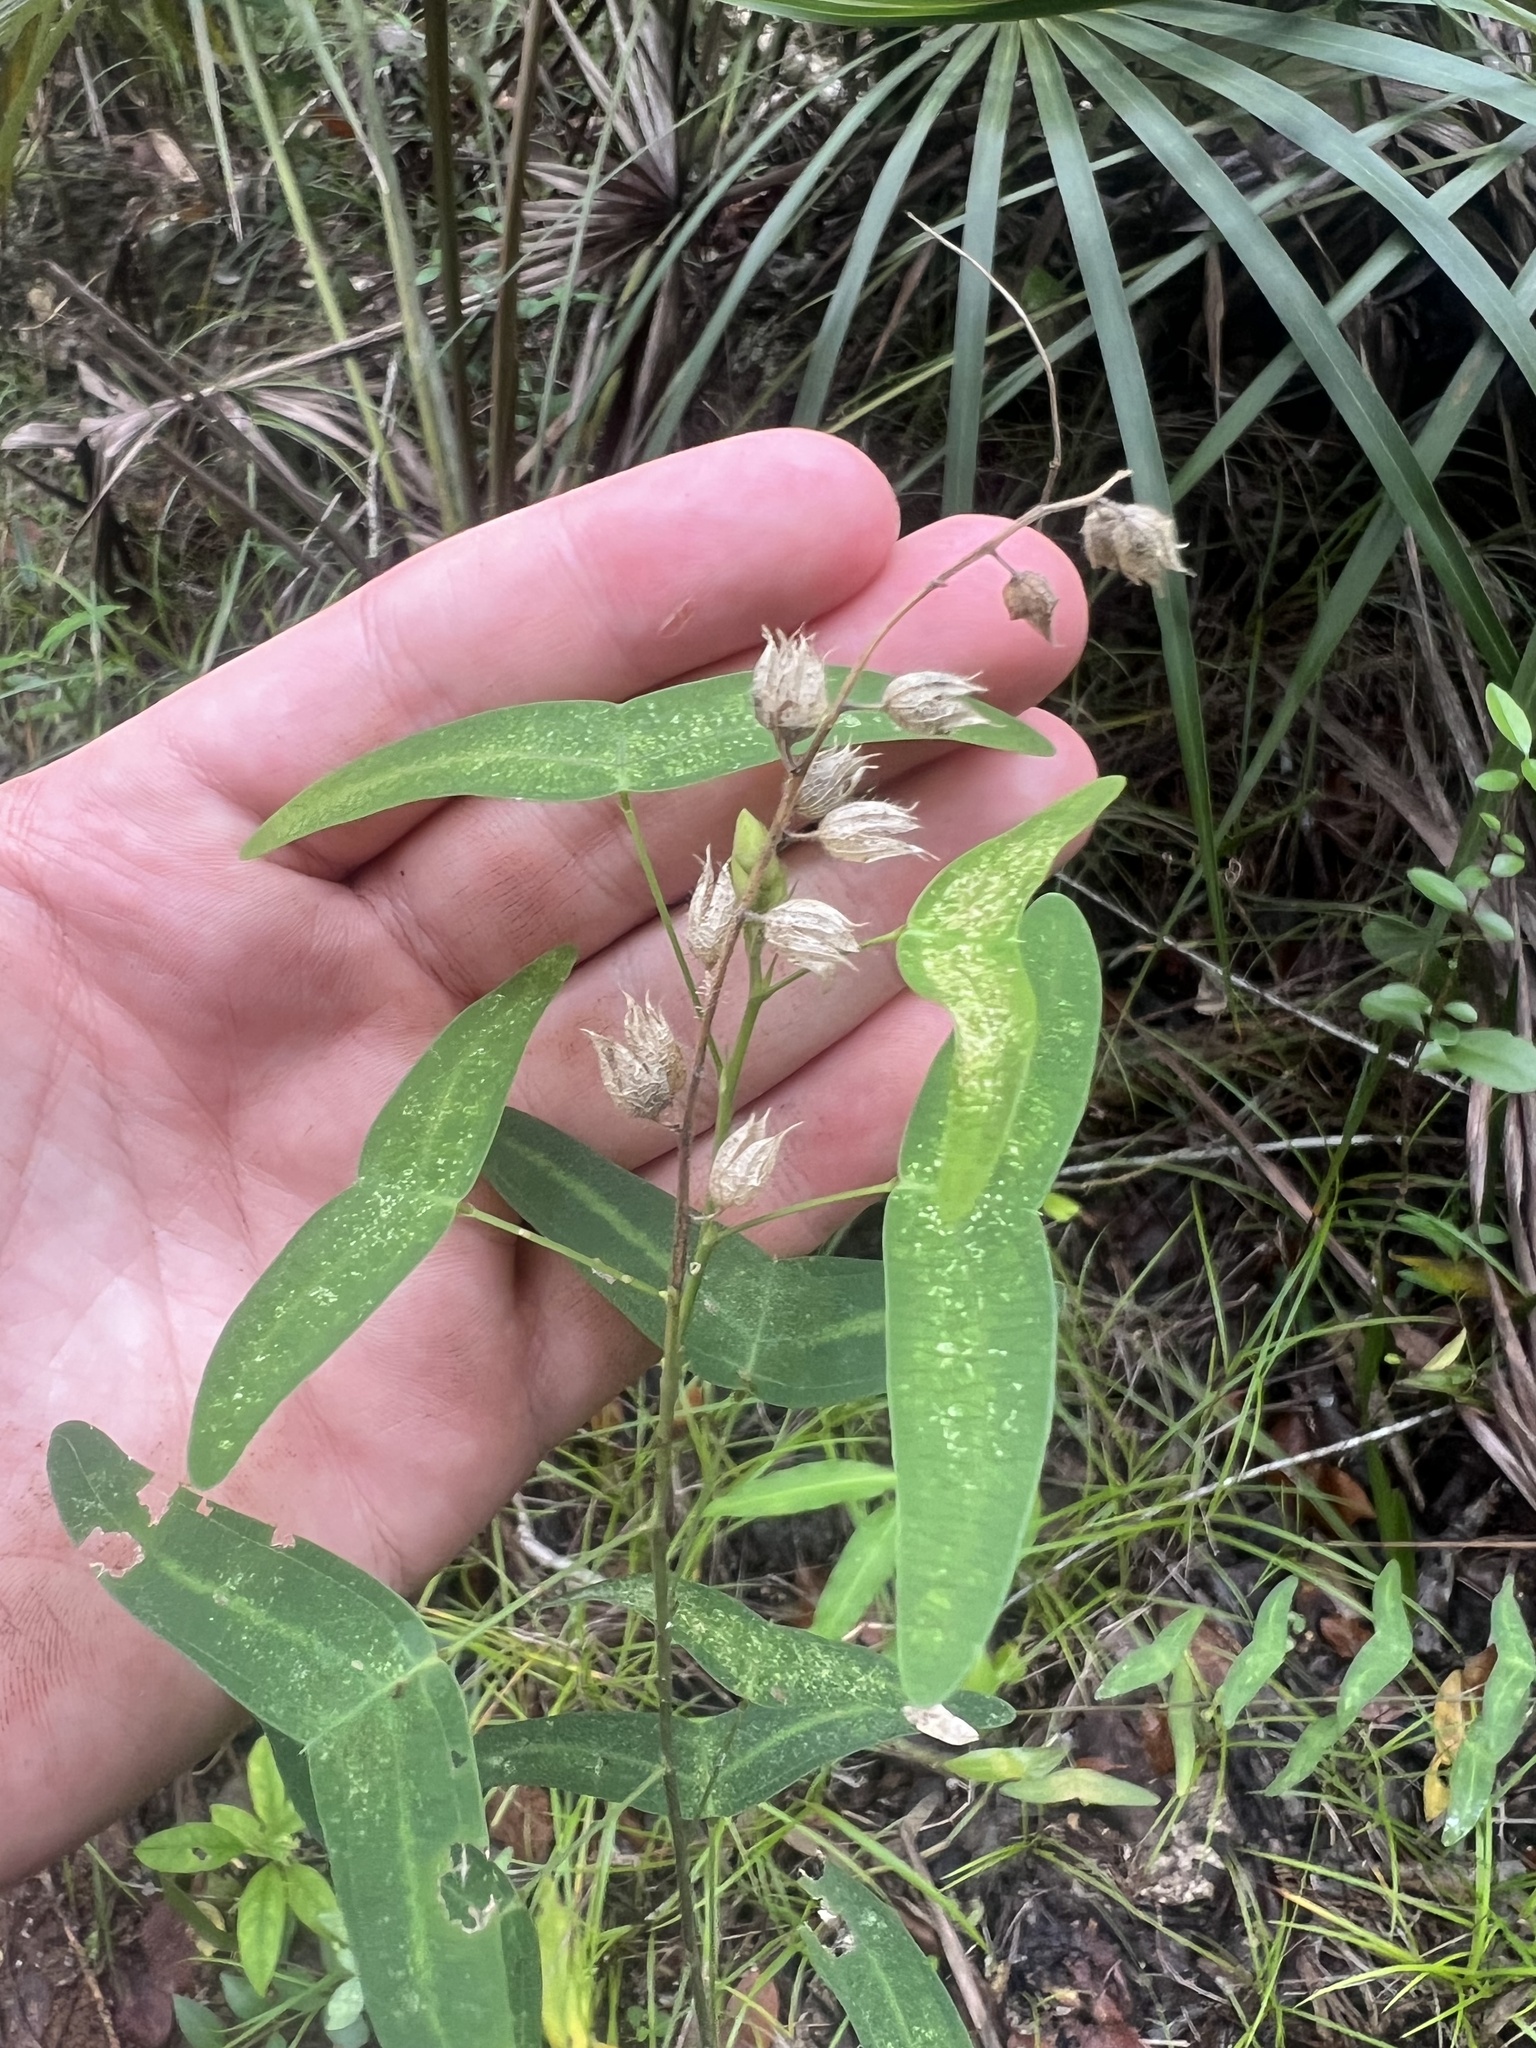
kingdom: Plantae
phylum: Tracheophyta
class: Magnoliopsida
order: Fabales
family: Fabaceae
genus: Christia
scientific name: Christia vespertilionis
